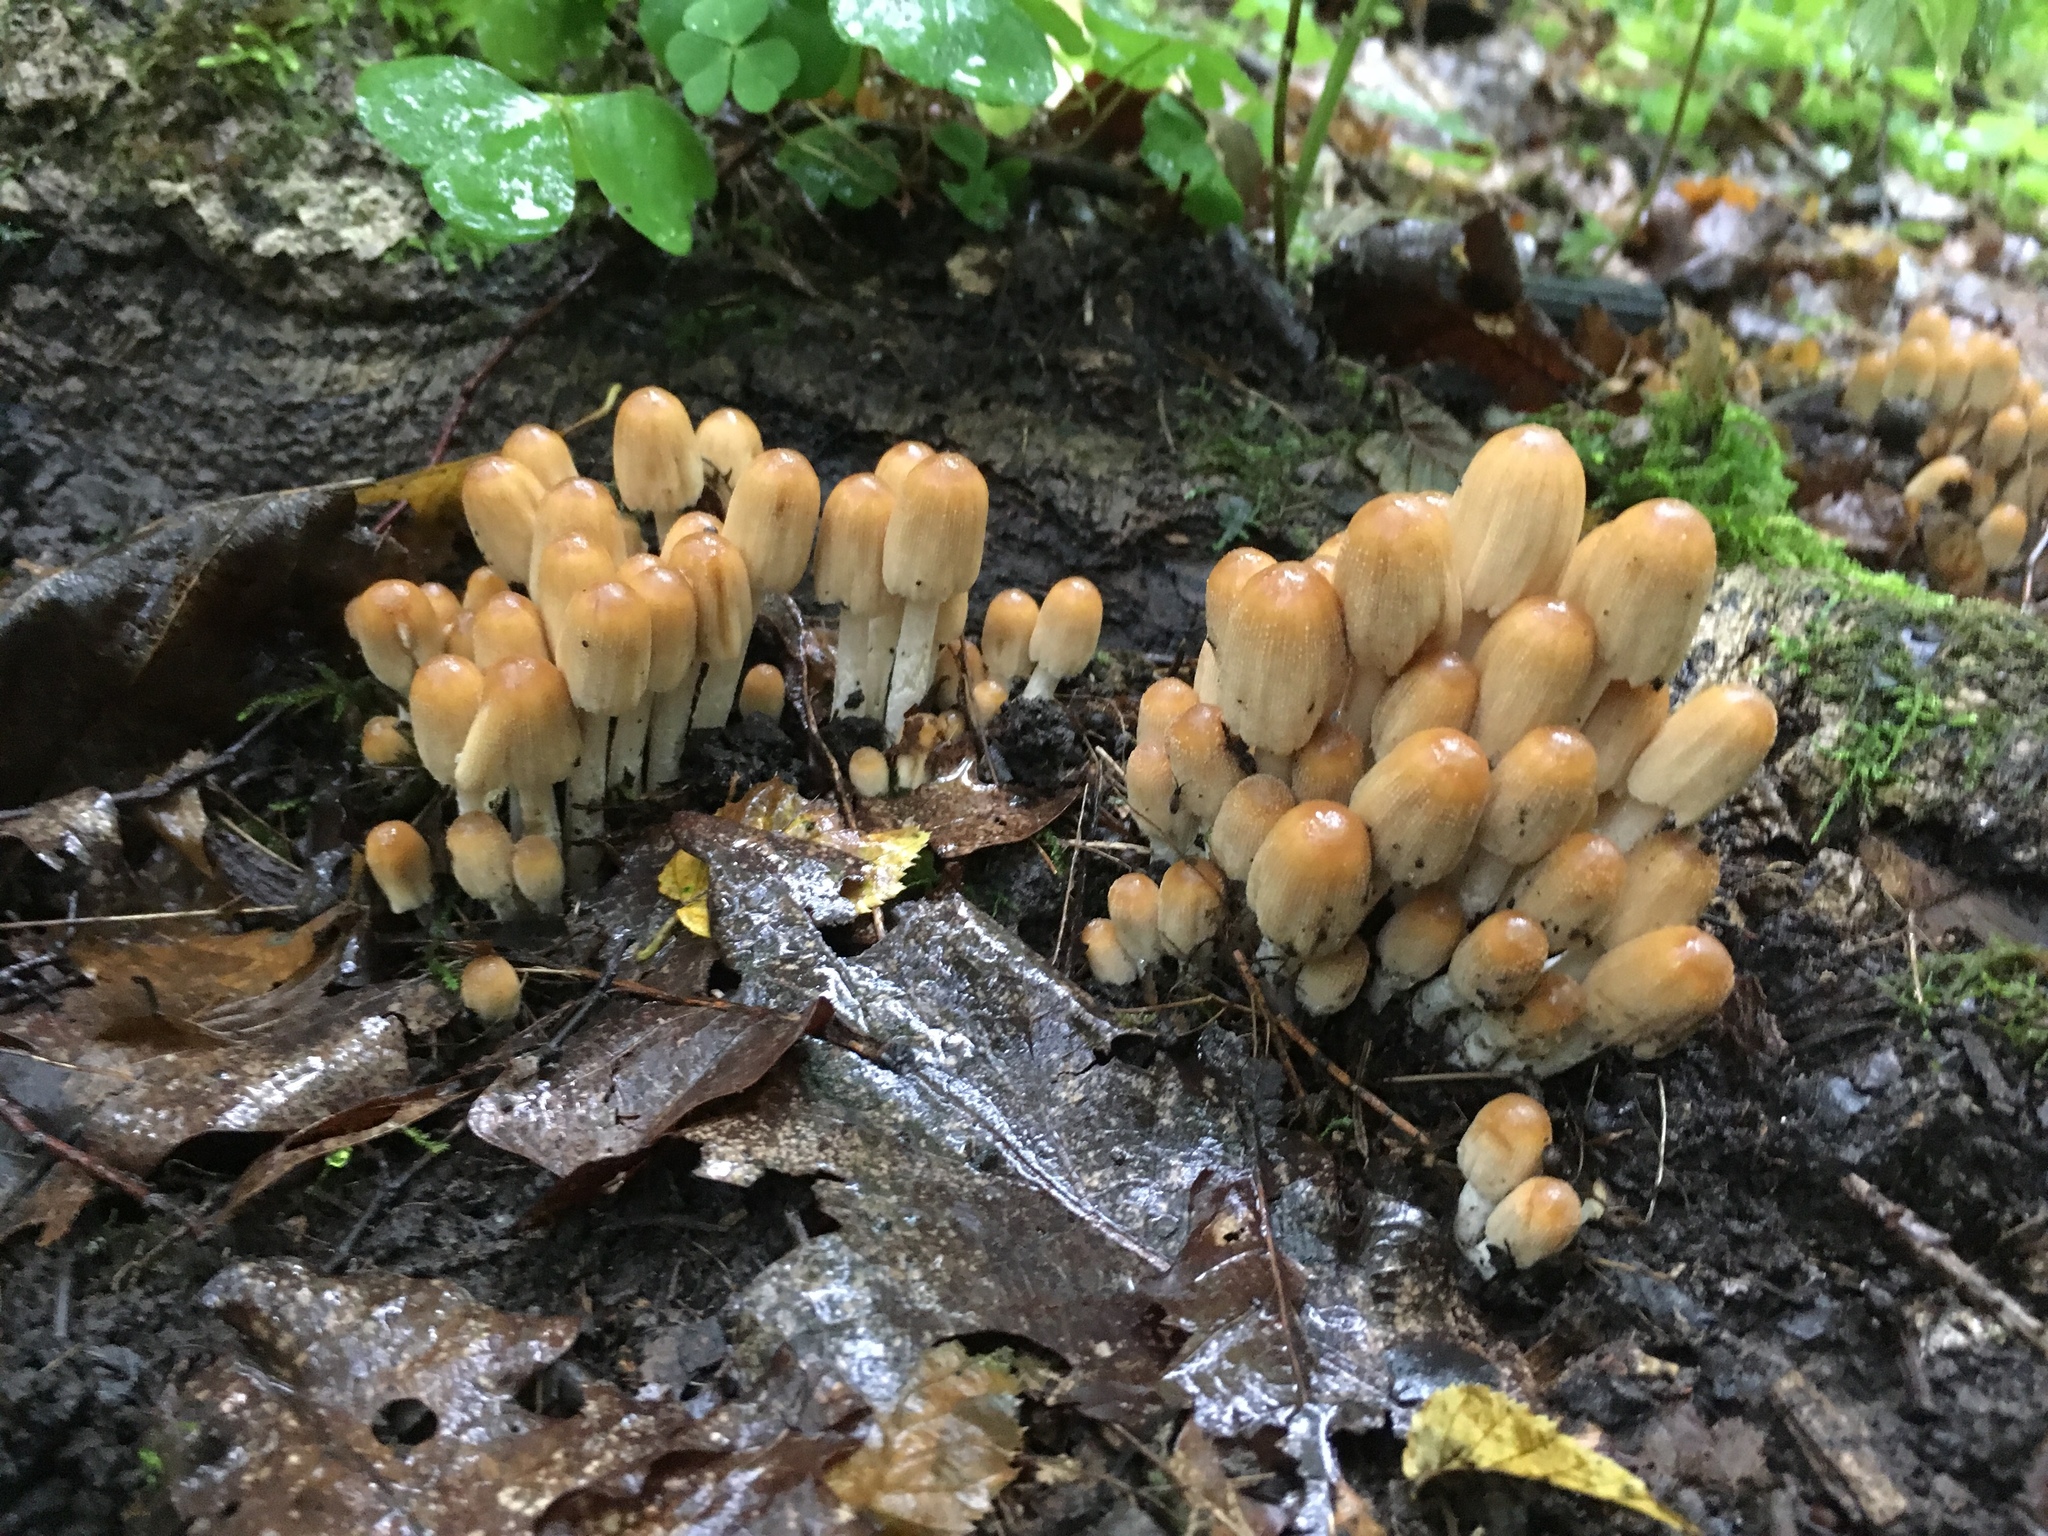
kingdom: Fungi
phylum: Basidiomycota
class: Agaricomycetes
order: Agaricales
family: Psathyrellaceae
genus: Coprinellus
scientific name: Coprinellus micaceus
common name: Glistening ink-cap
